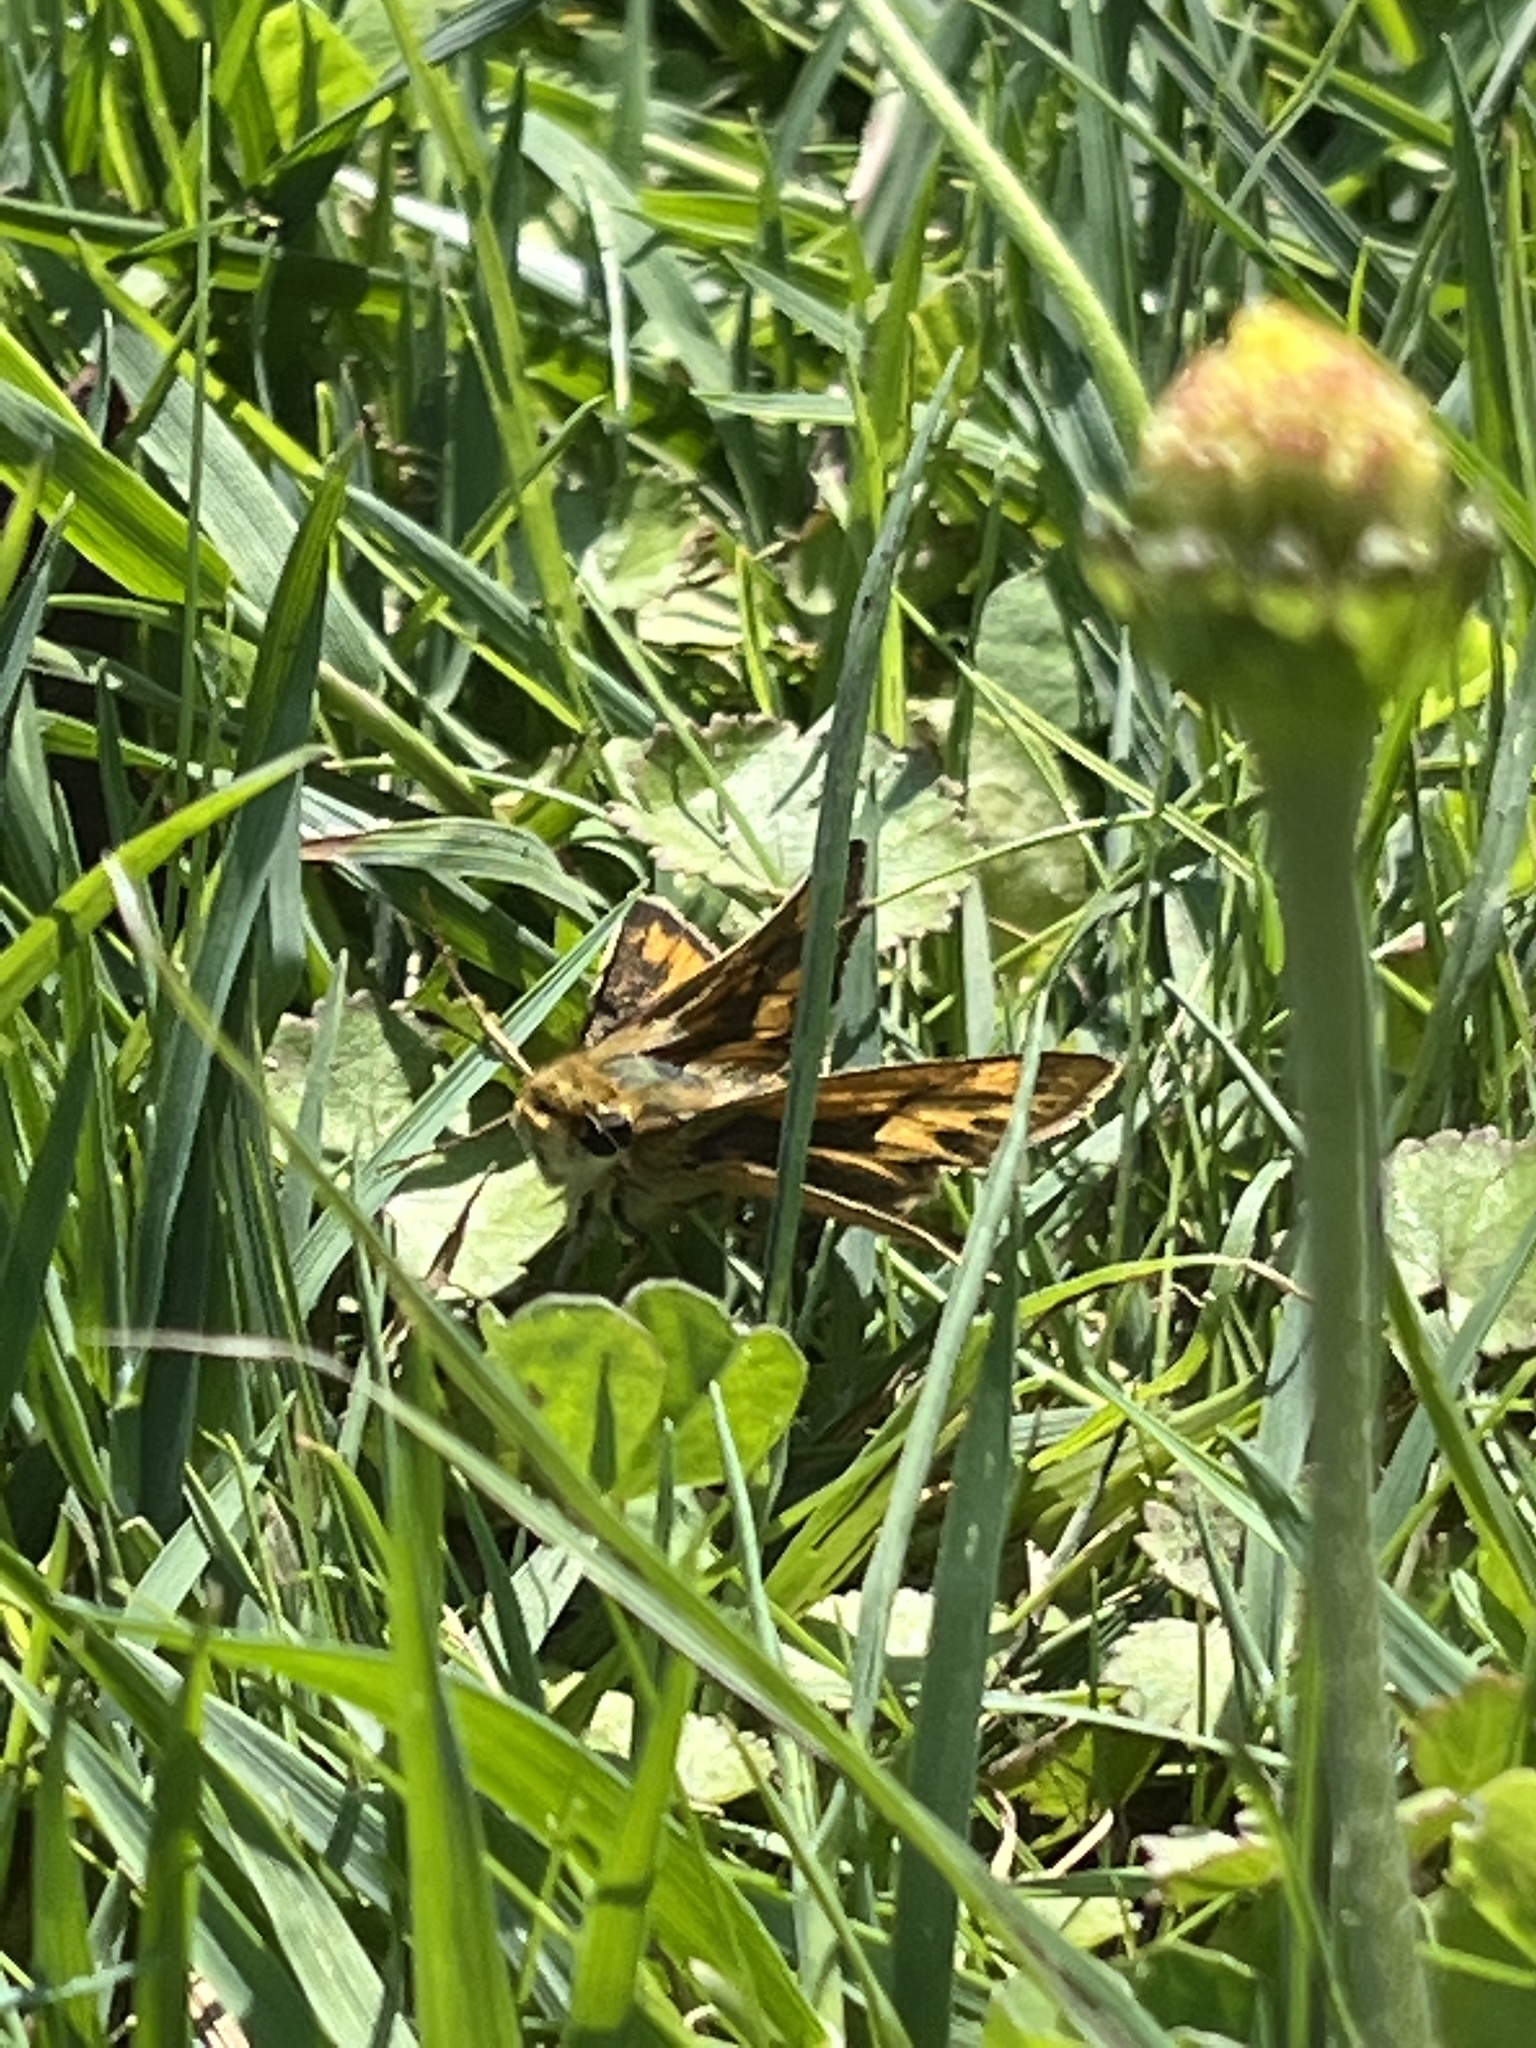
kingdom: Animalia
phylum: Arthropoda
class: Insecta
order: Lepidoptera
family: Hesperiidae
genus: Hylephila
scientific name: Hylephila phyleus
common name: Fiery skipper
